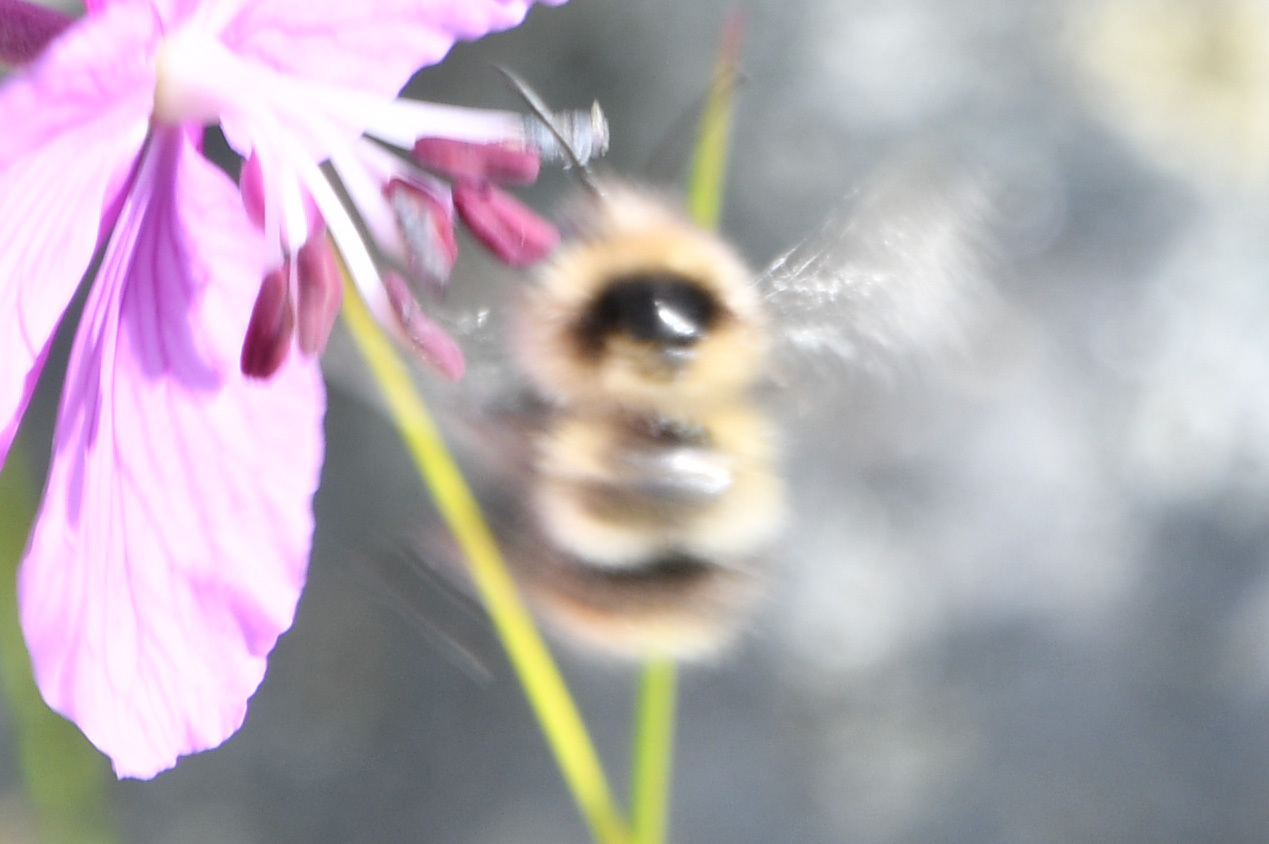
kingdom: Animalia
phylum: Arthropoda
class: Insecta
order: Hymenoptera
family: Apidae
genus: Bombus
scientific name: Bombus frigidus
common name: Frigid bumble bee
